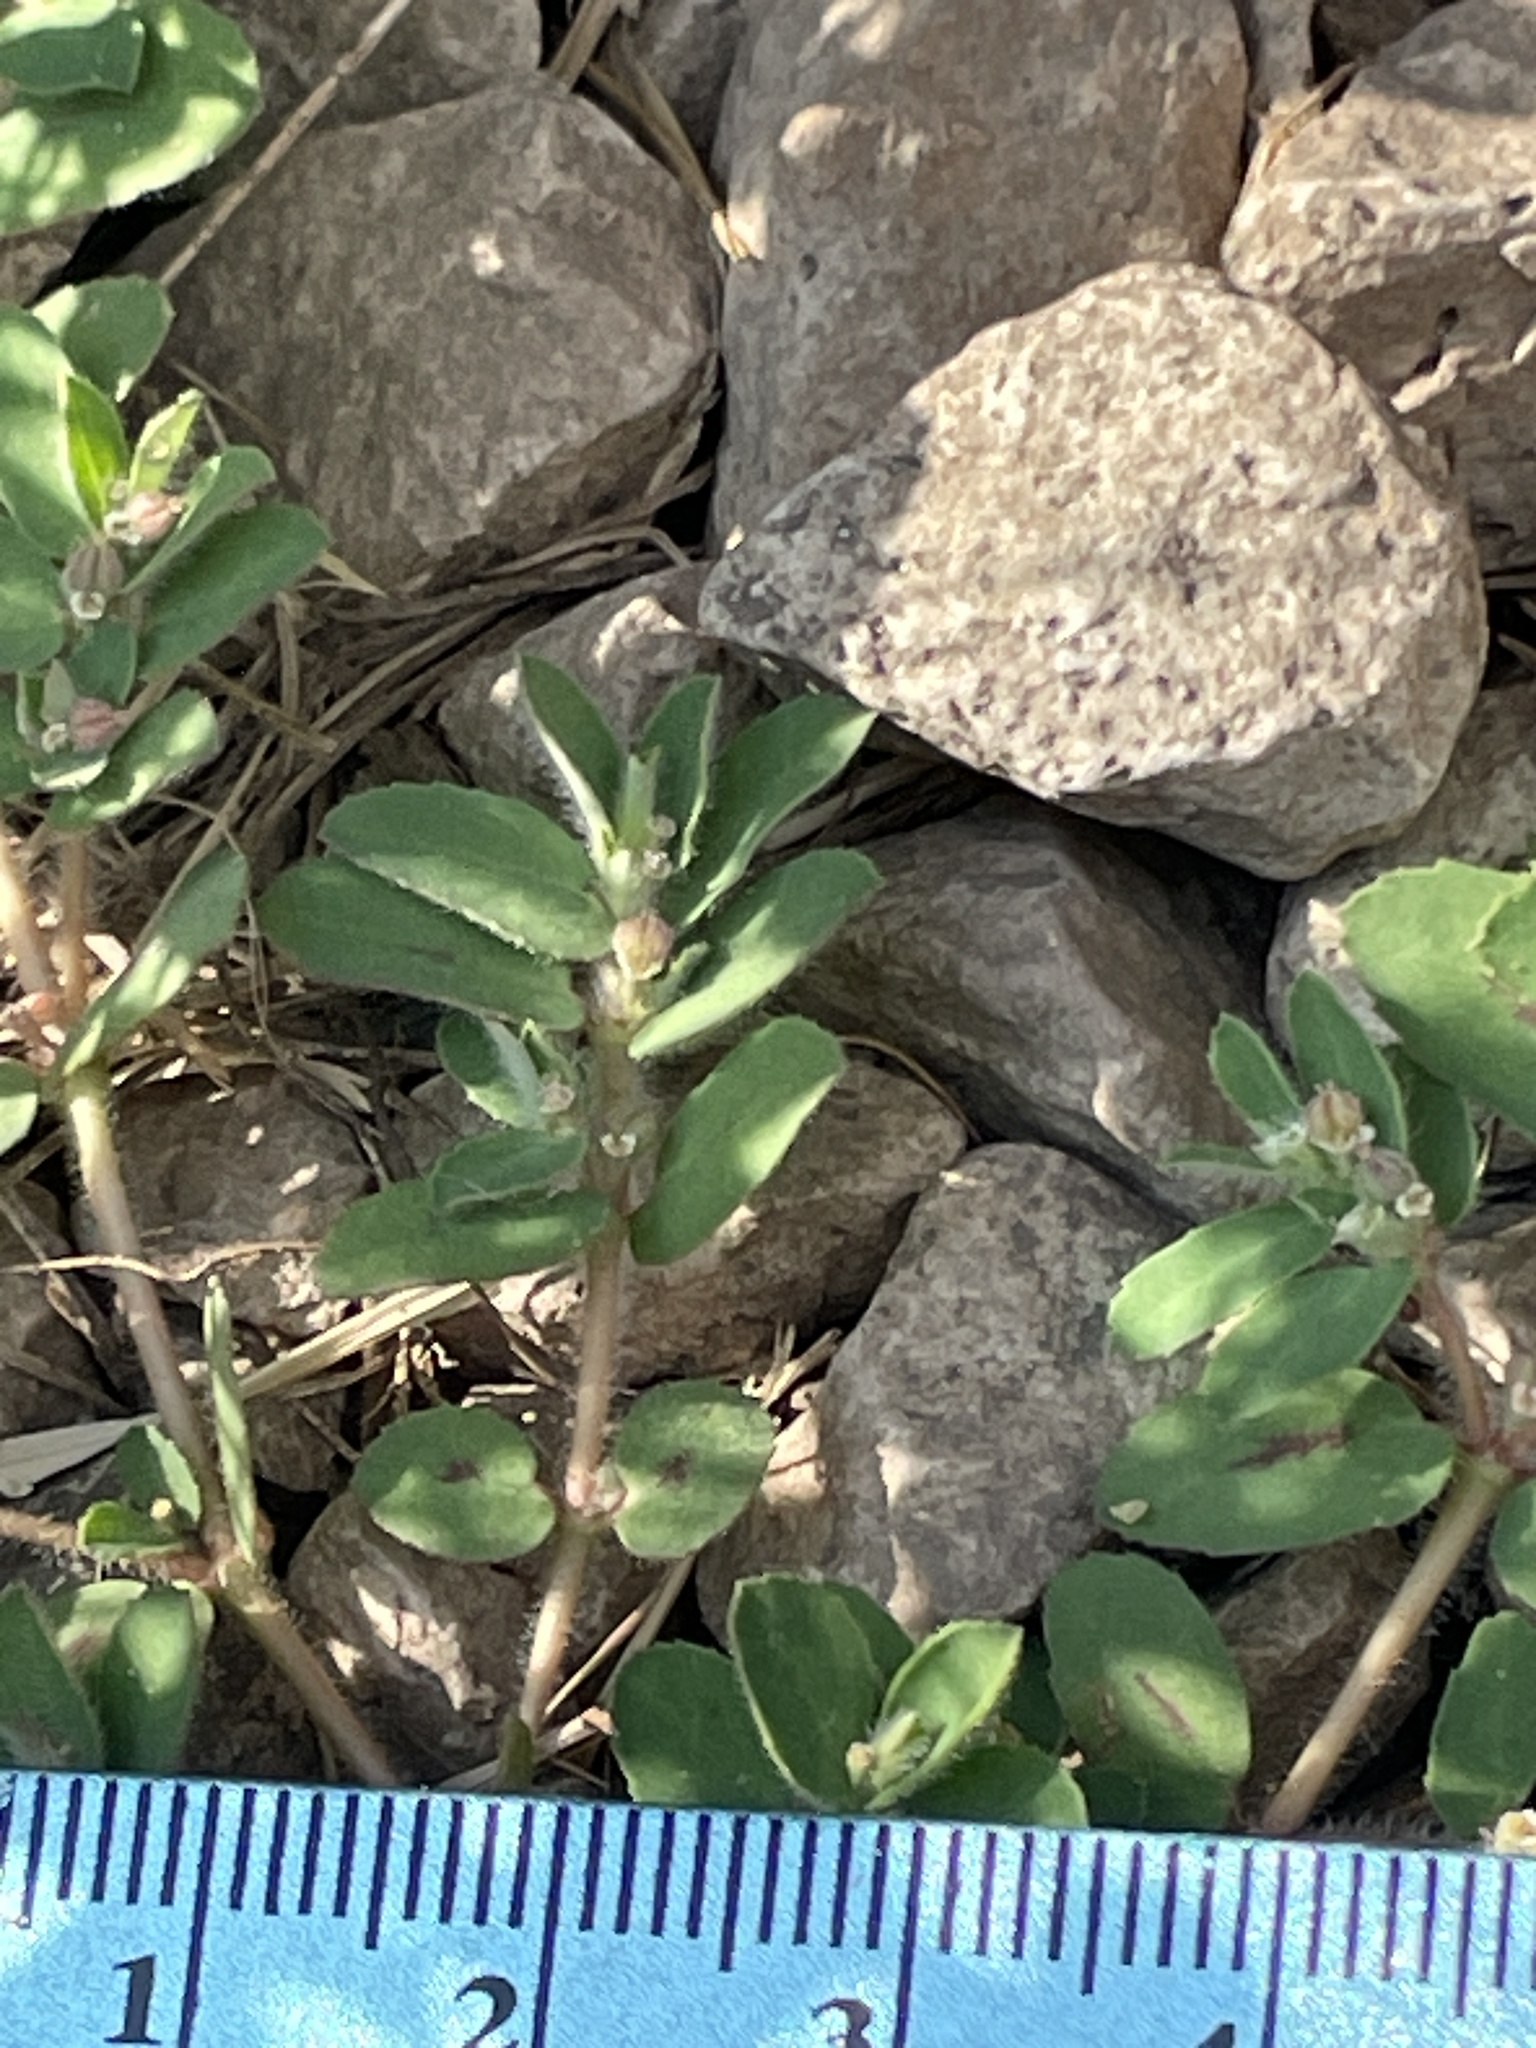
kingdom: Plantae
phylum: Tracheophyta
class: Magnoliopsida
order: Malpighiales
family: Euphorbiaceae
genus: Euphorbia
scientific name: Euphorbia maculata
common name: Spotted spurge
